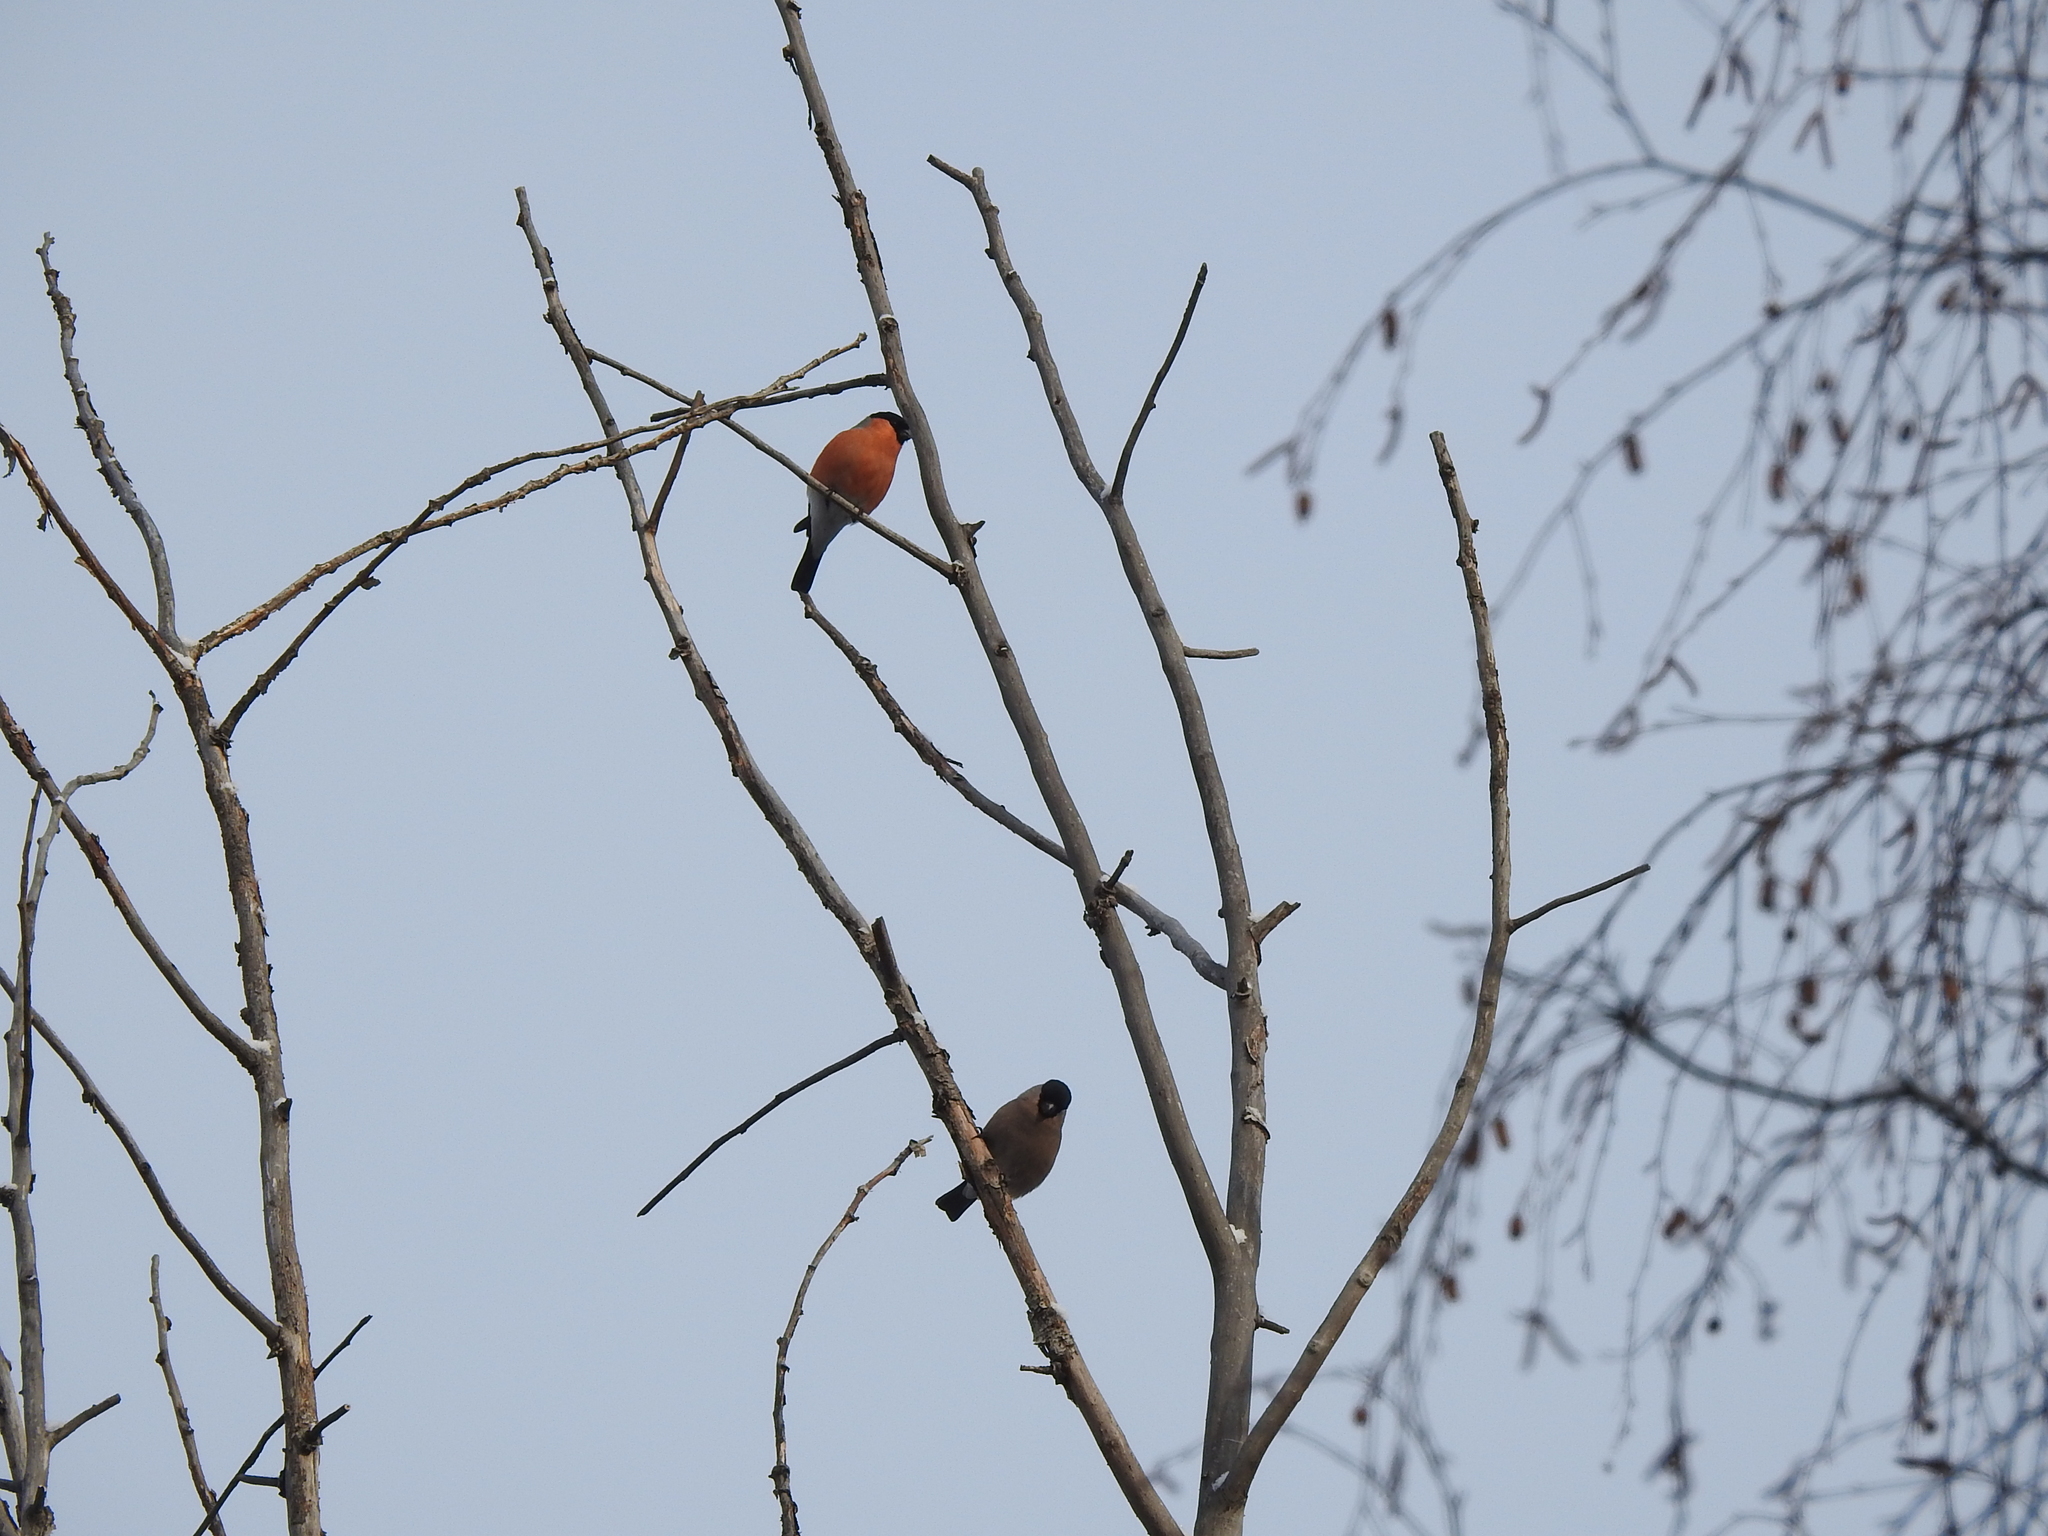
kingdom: Animalia
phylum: Chordata
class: Aves
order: Passeriformes
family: Fringillidae
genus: Pyrrhula
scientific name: Pyrrhula pyrrhula
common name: Eurasian bullfinch
